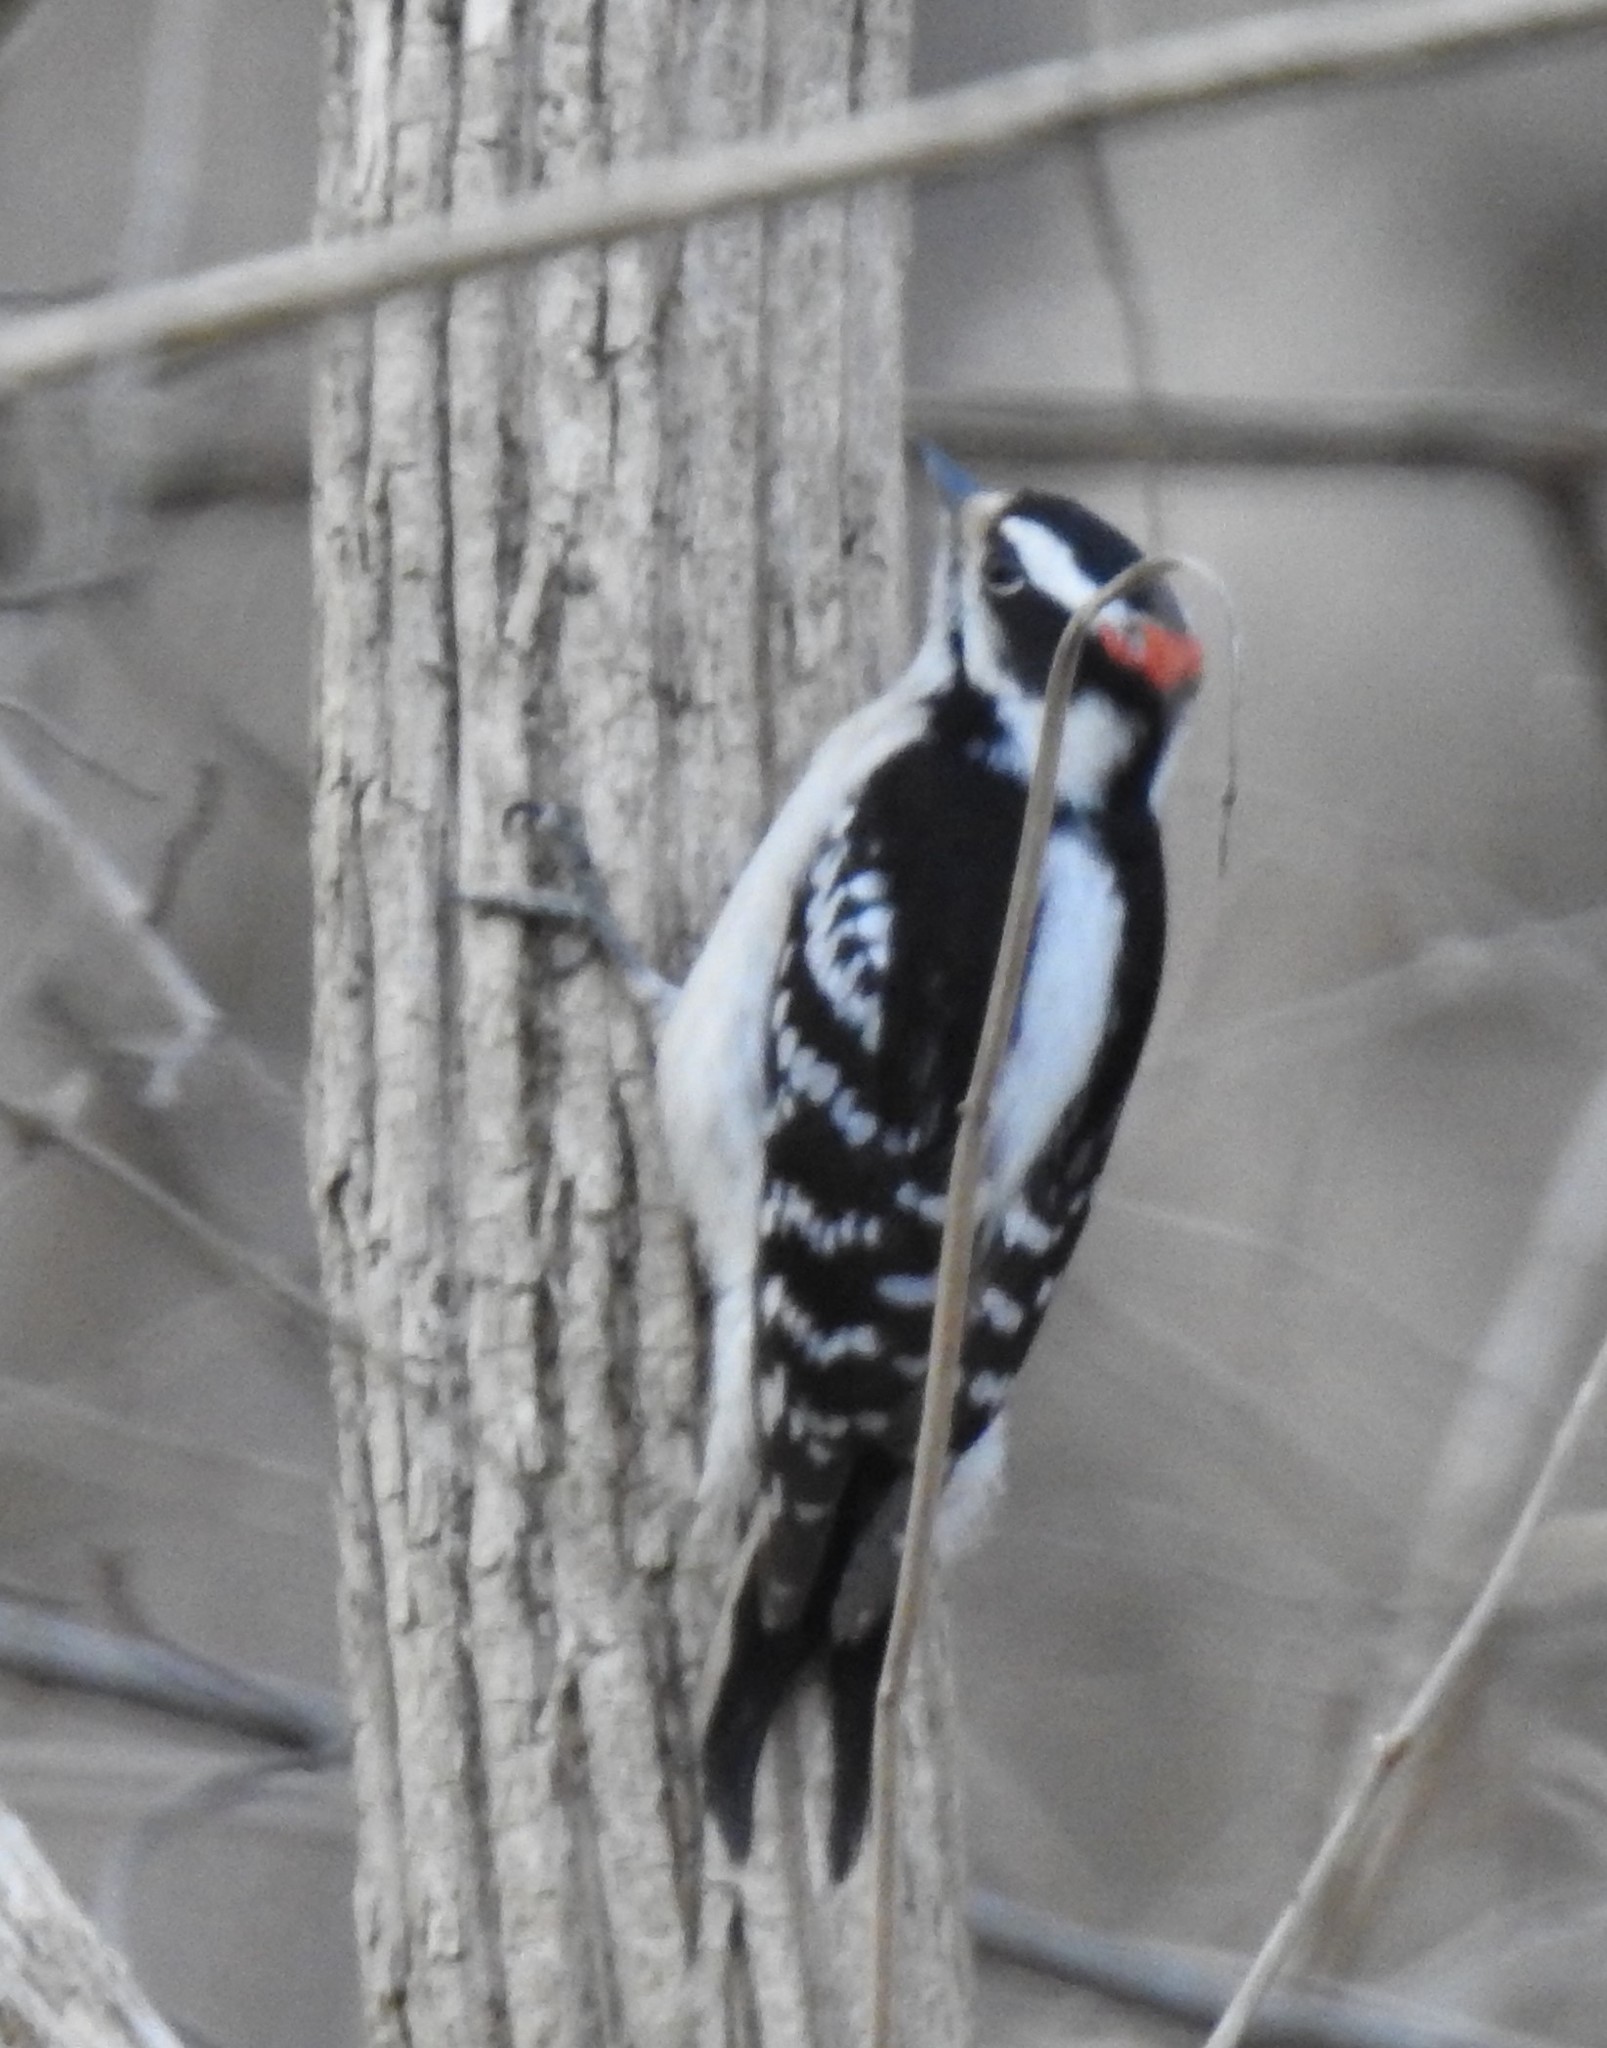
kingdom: Animalia
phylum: Chordata
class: Aves
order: Piciformes
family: Picidae
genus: Dryobates
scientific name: Dryobates pubescens
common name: Downy woodpecker
